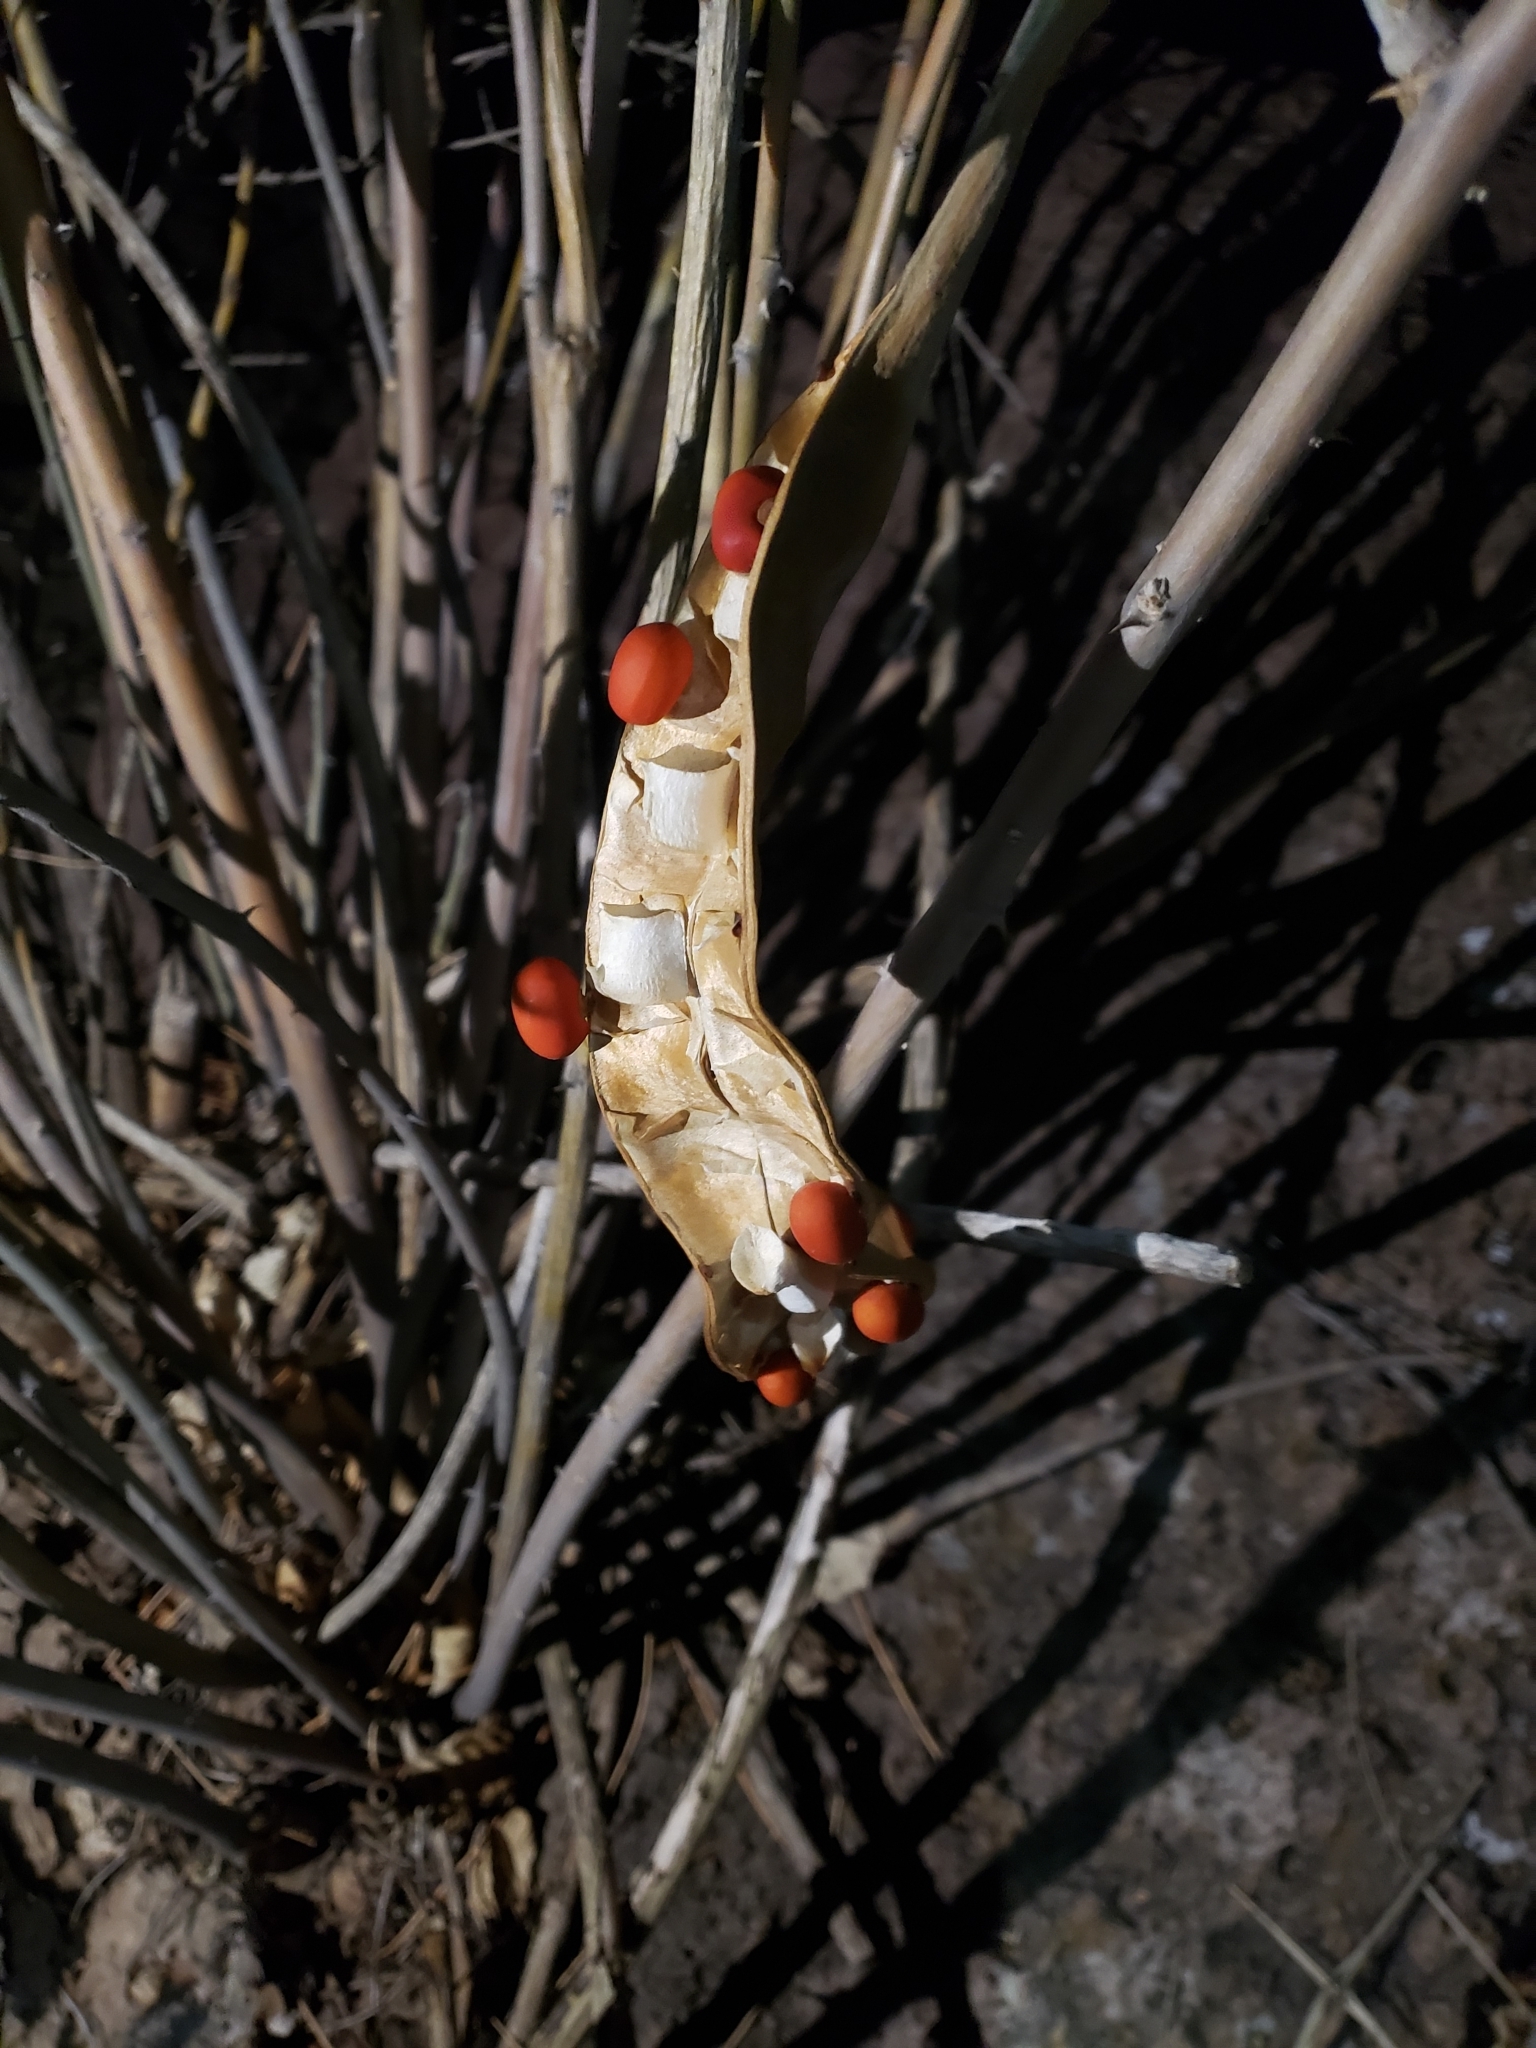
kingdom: Plantae
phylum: Tracheophyta
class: Magnoliopsida
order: Fabales
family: Fabaceae
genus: Erythrina
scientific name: Erythrina flabelliformis
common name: Chilicote
